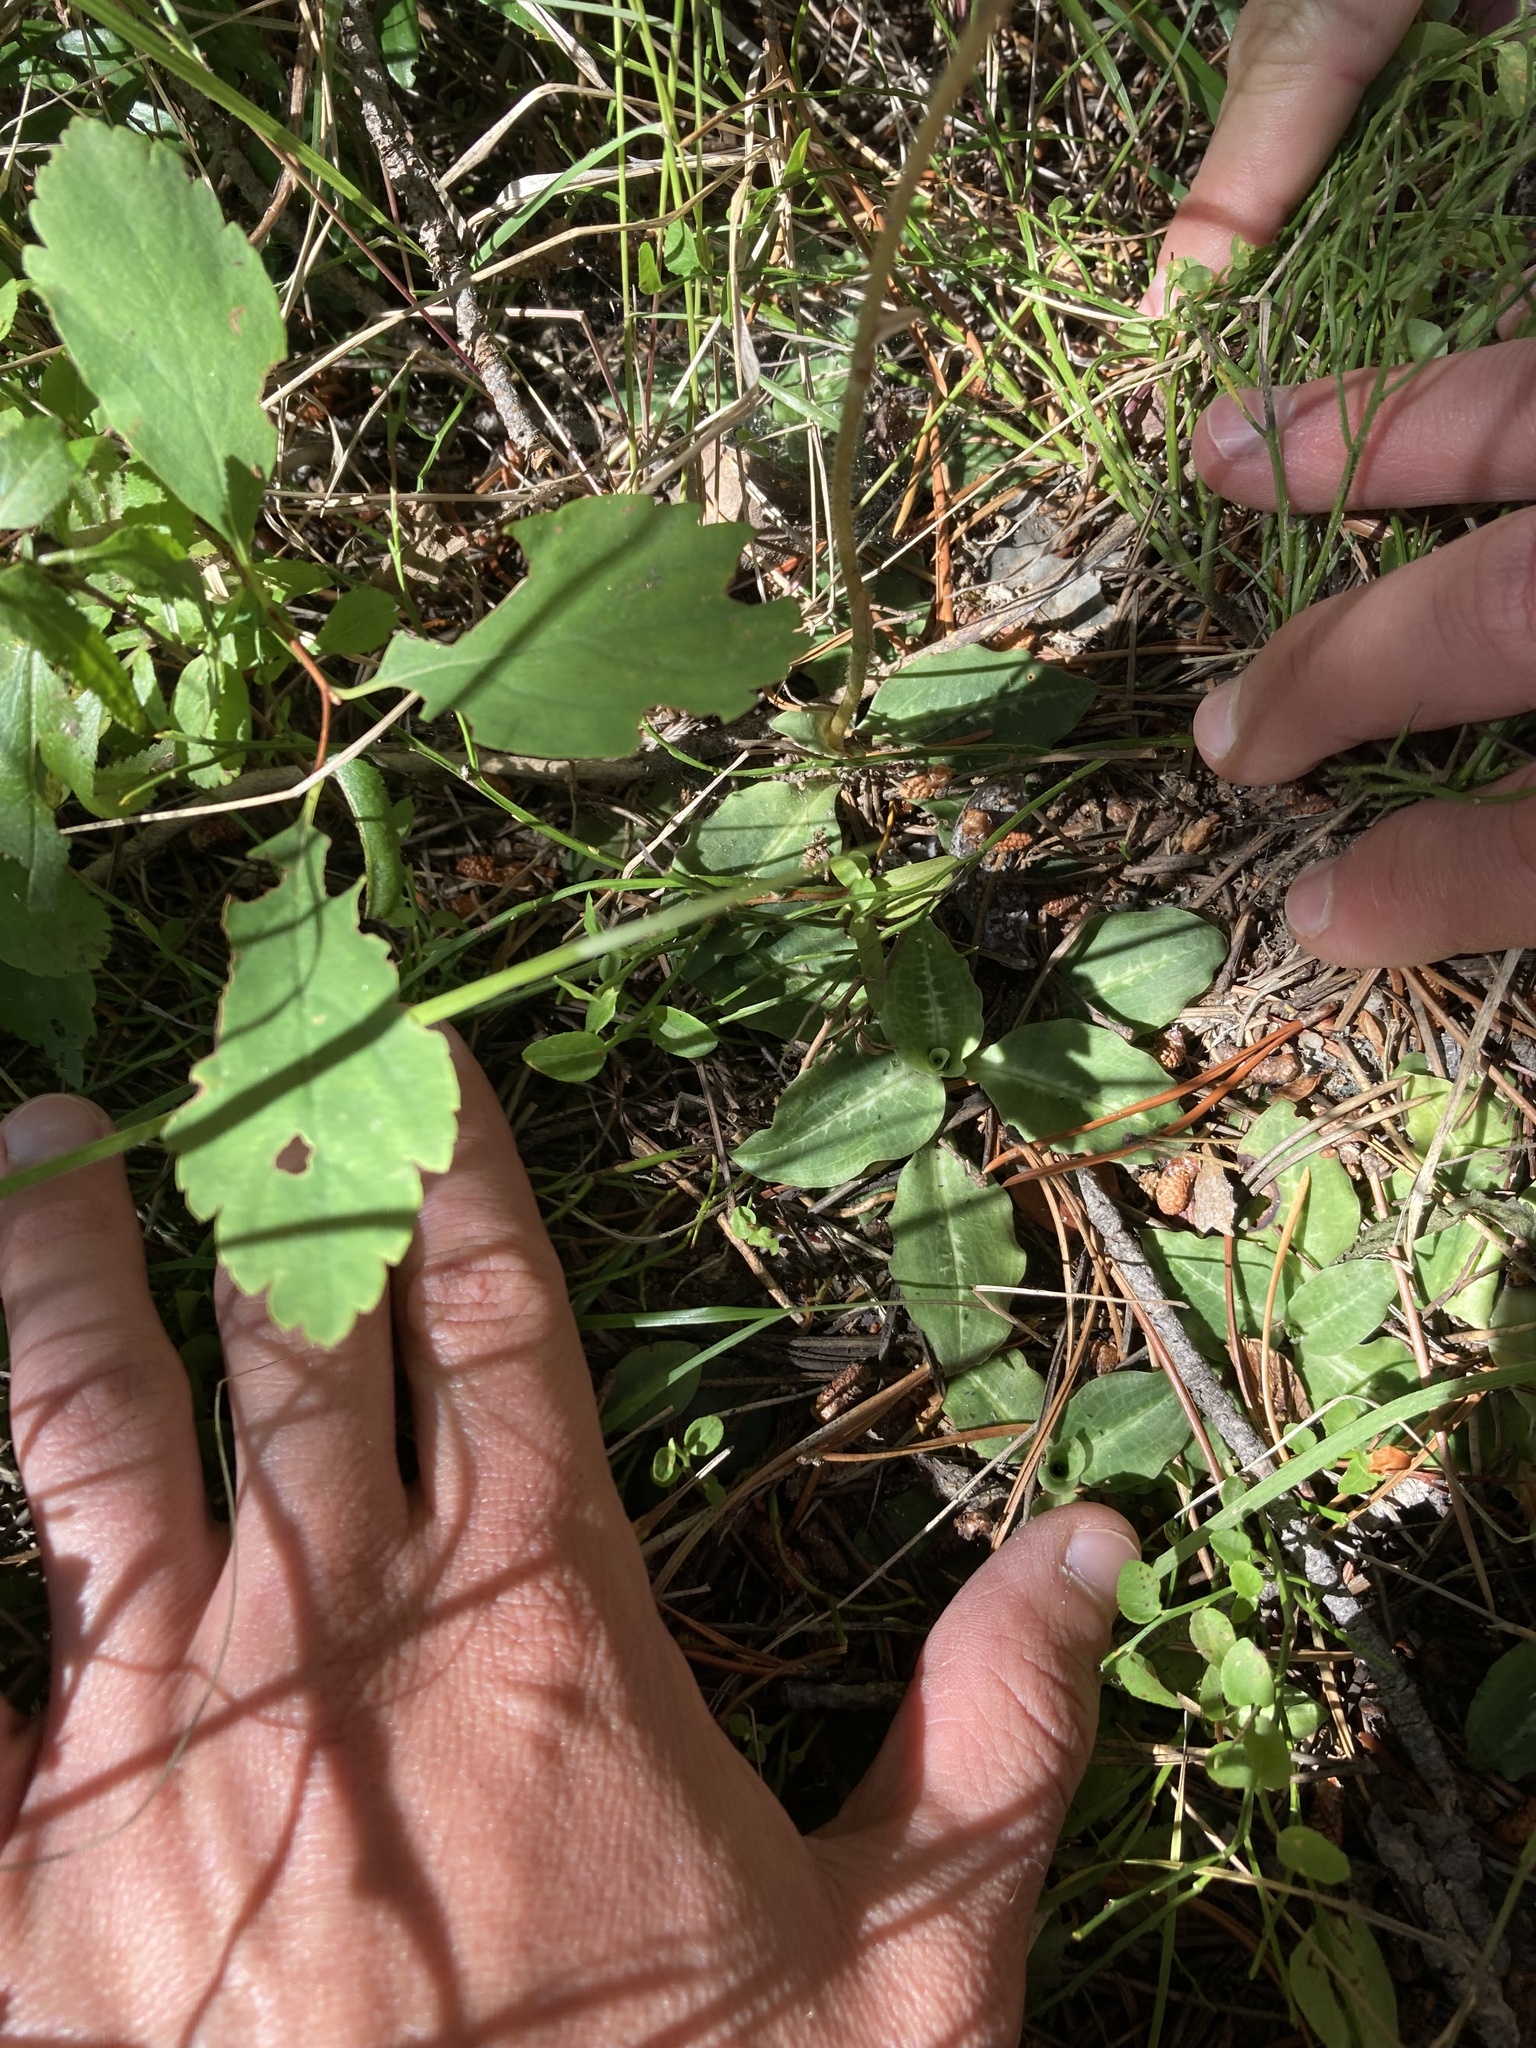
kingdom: Plantae
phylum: Tracheophyta
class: Liliopsida
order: Asparagales
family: Orchidaceae
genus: Goodyera
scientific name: Goodyera oblongifolia
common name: Giant rattlesnake-plantain
